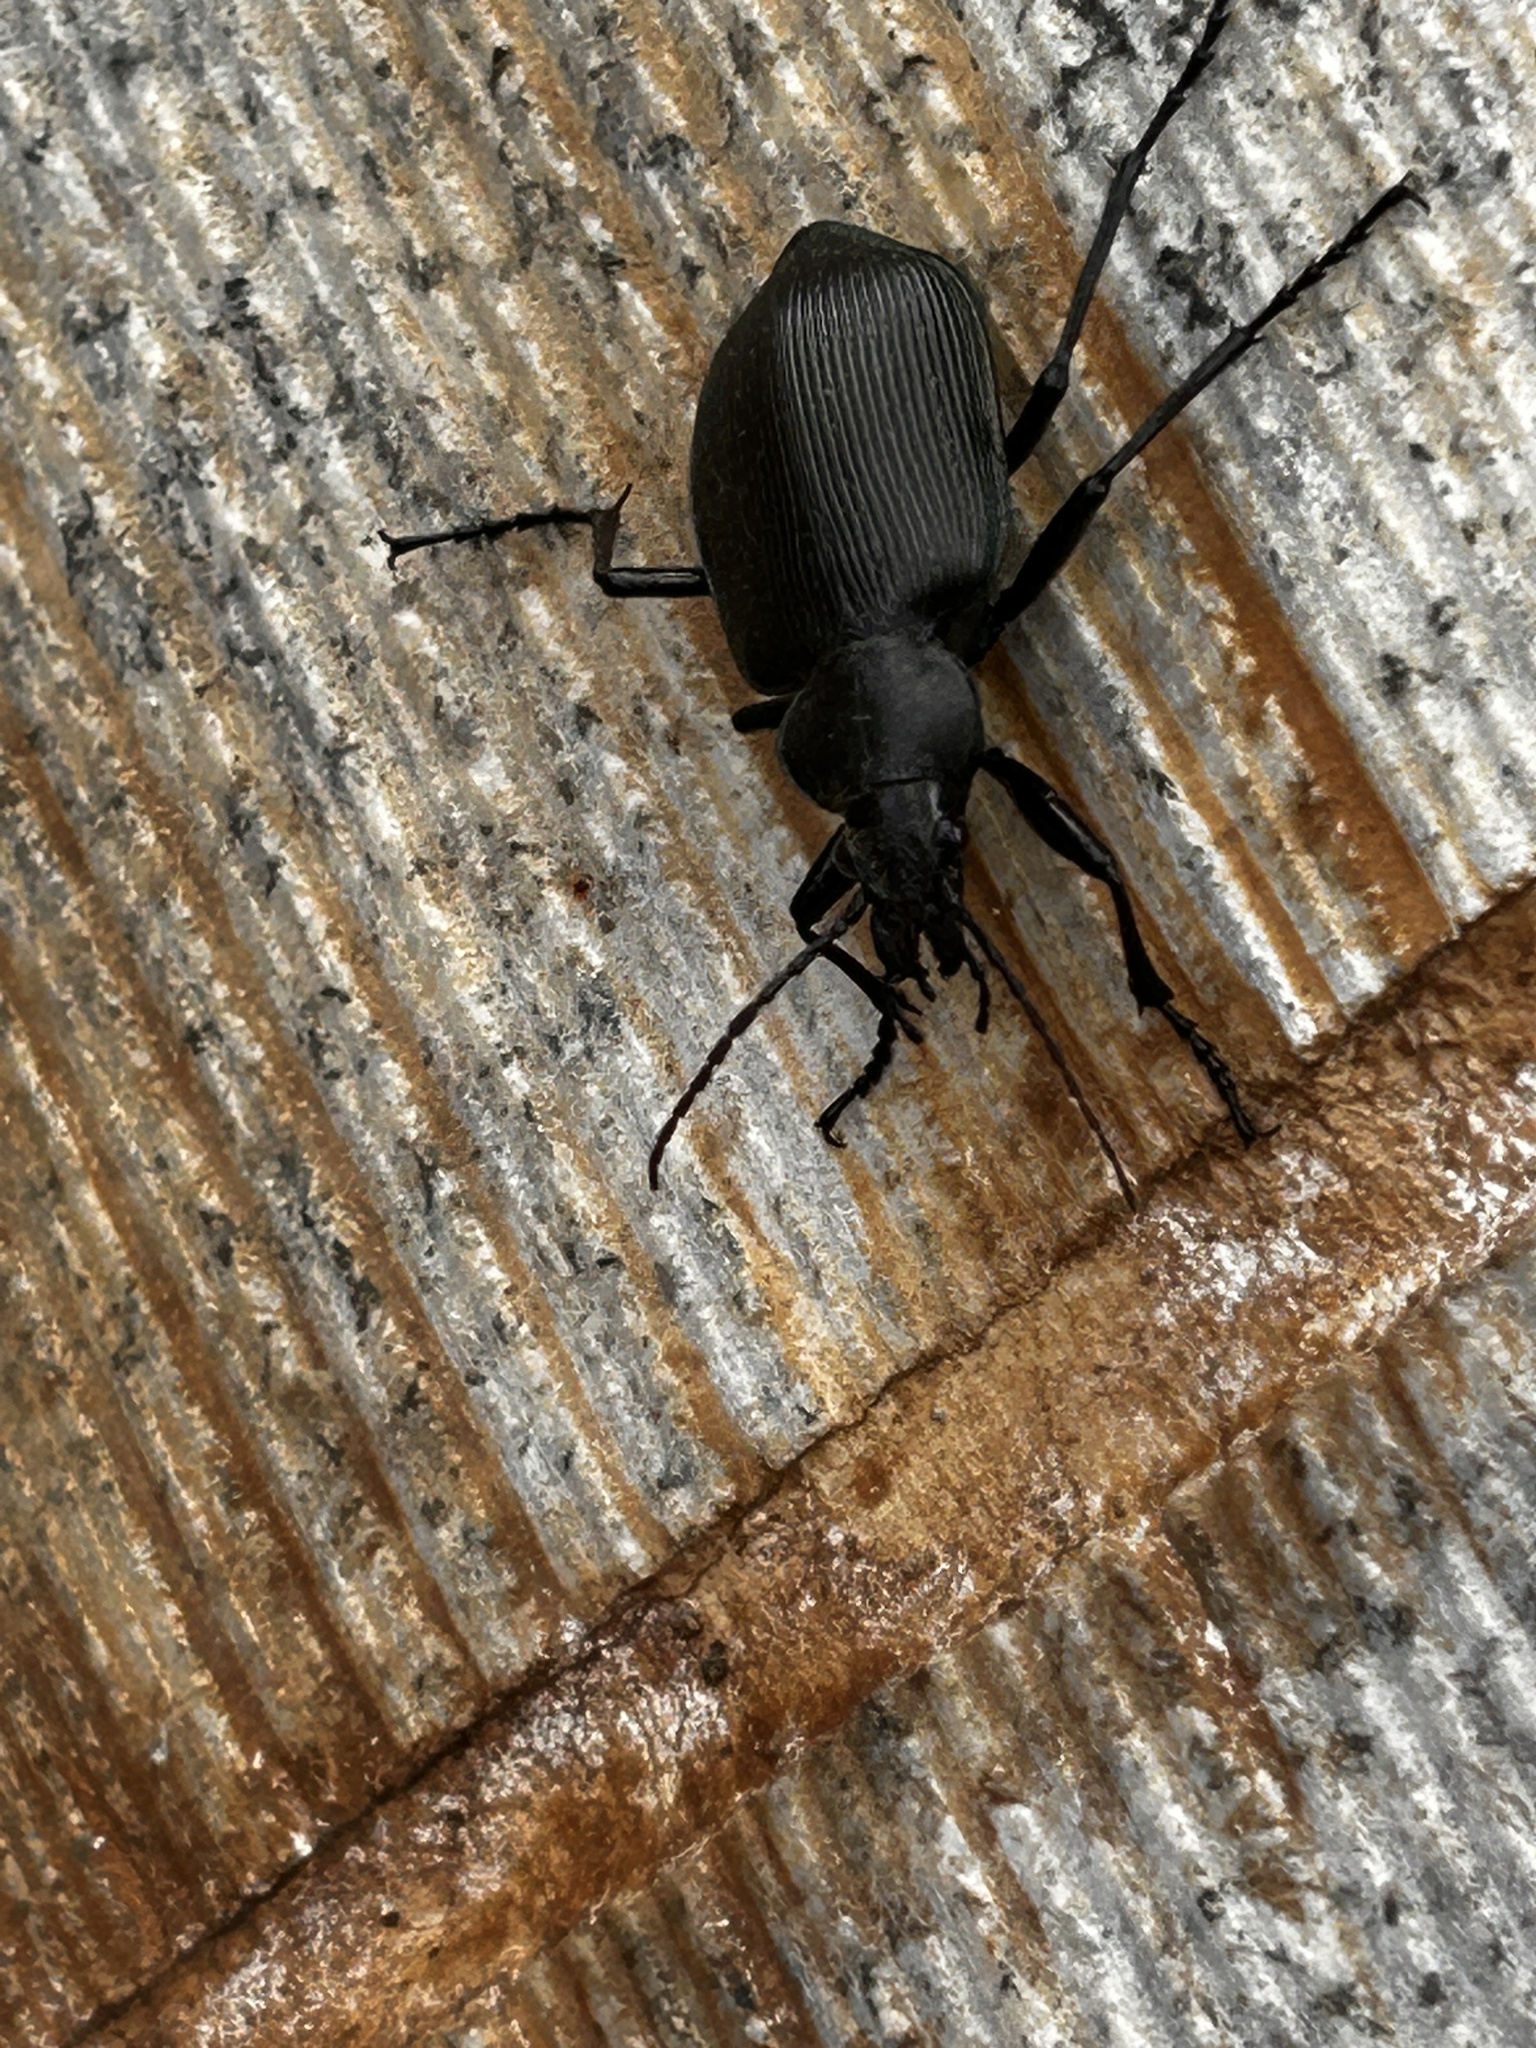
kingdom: Animalia
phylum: Arthropoda
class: Insecta
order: Coleoptera
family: Carabidae
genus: Calosoma
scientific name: Calosoma maximowiczi
